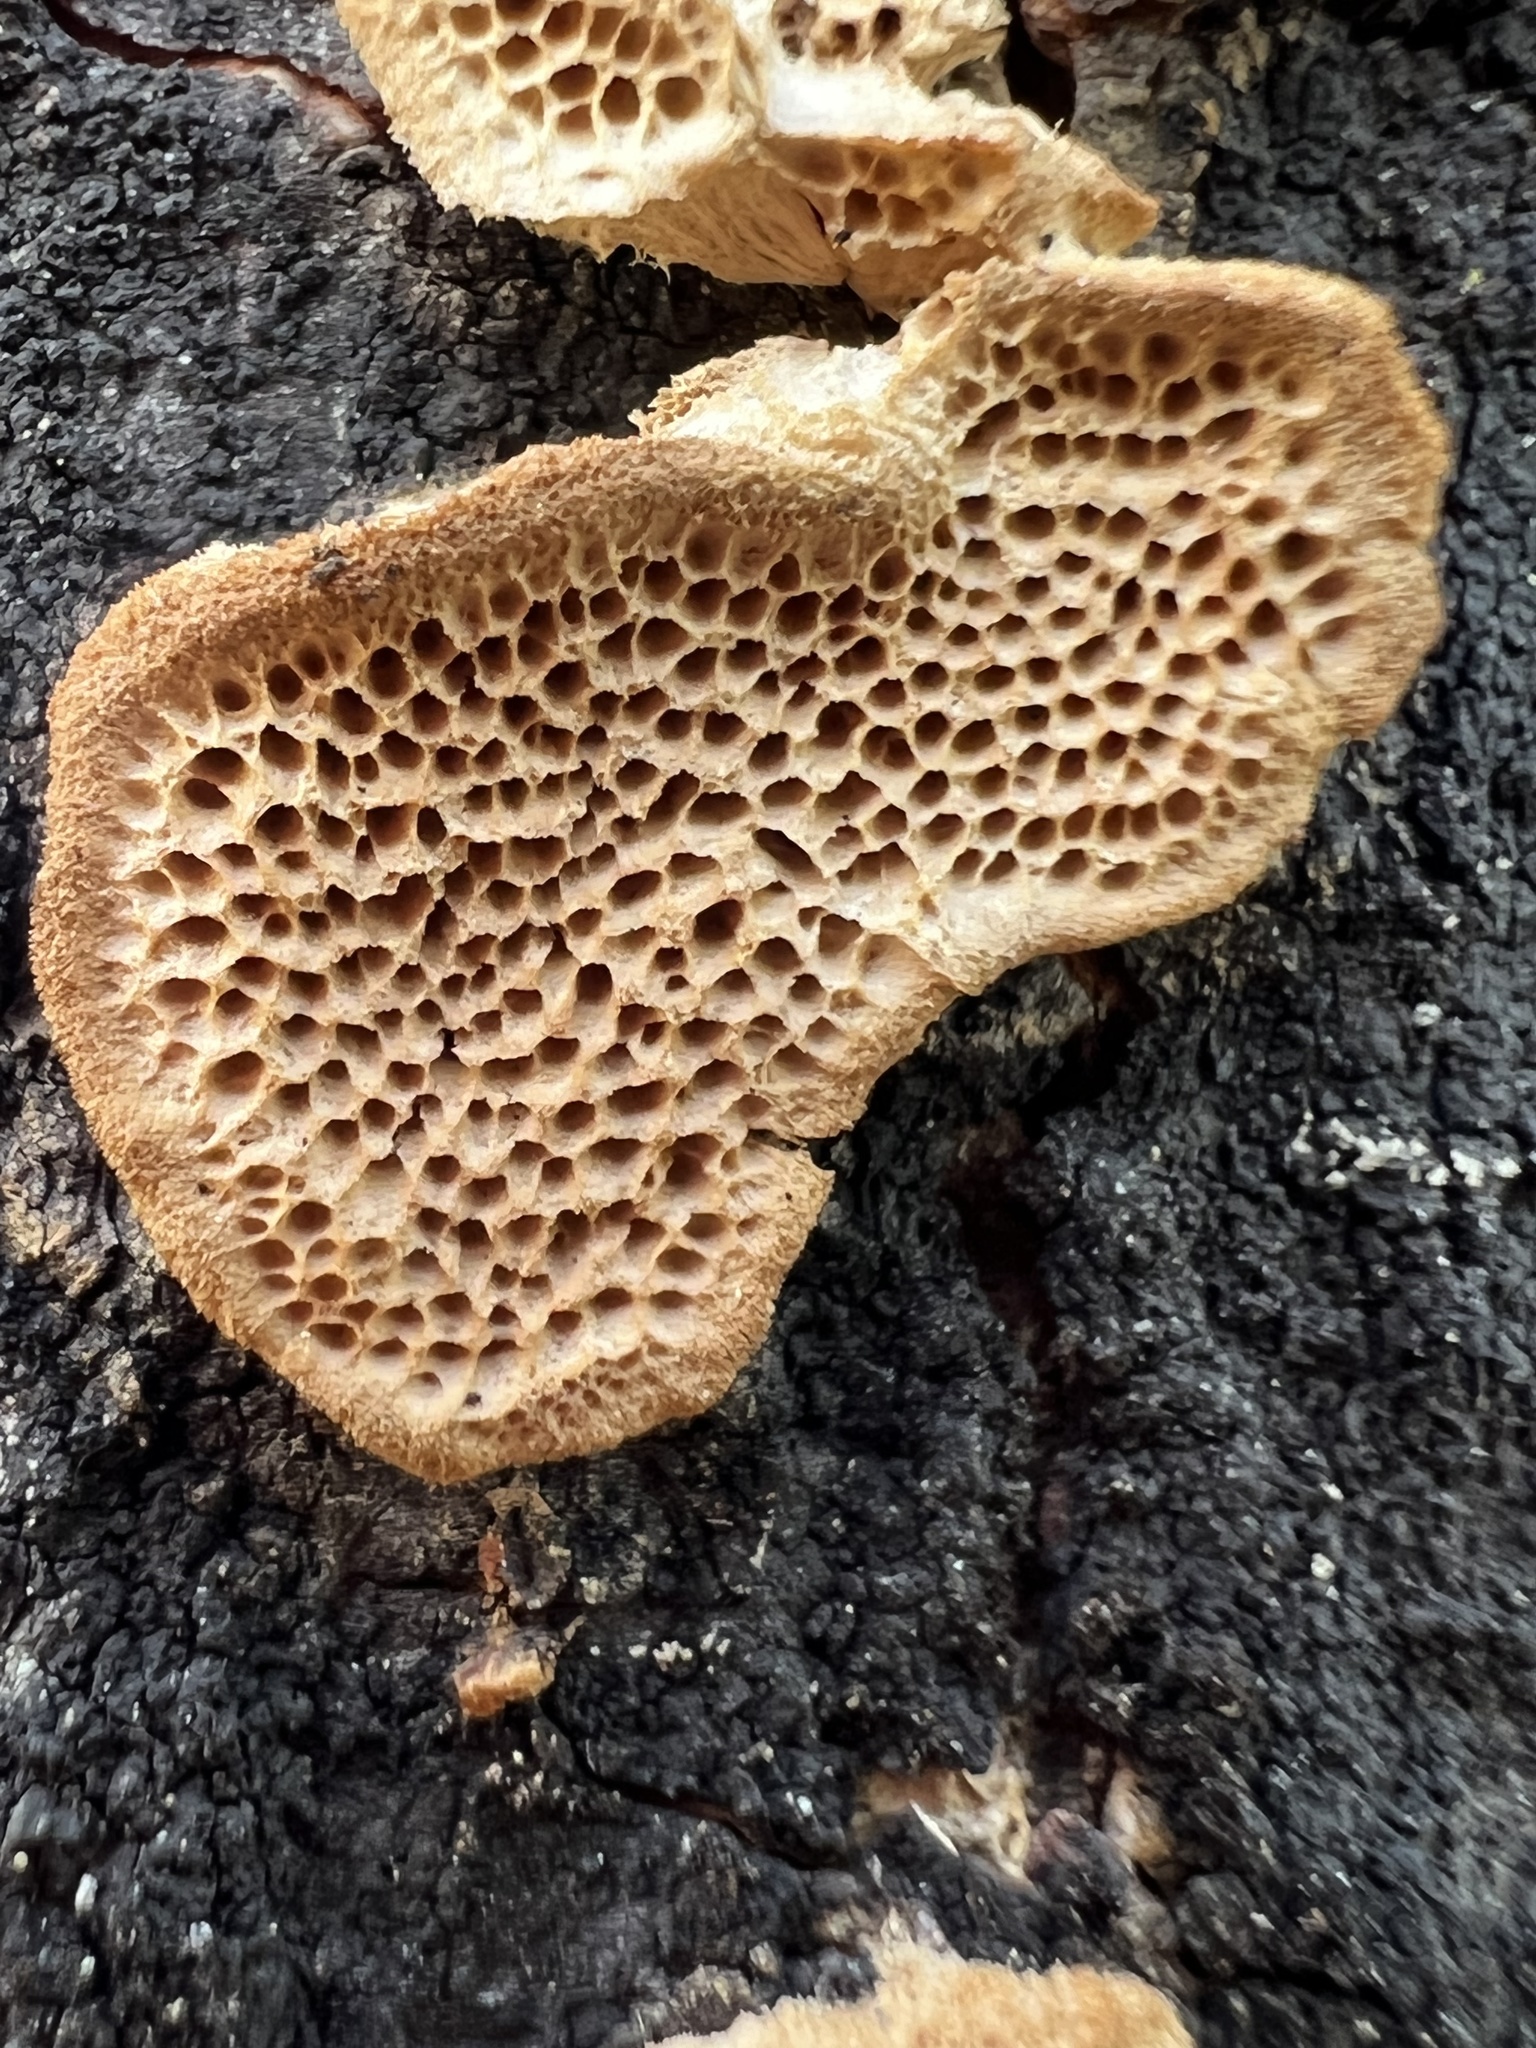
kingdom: Fungi
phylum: Basidiomycota
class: Agaricomycetes
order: Polyporales
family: Polyporaceae
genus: Trametes
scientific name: Trametes trogii
